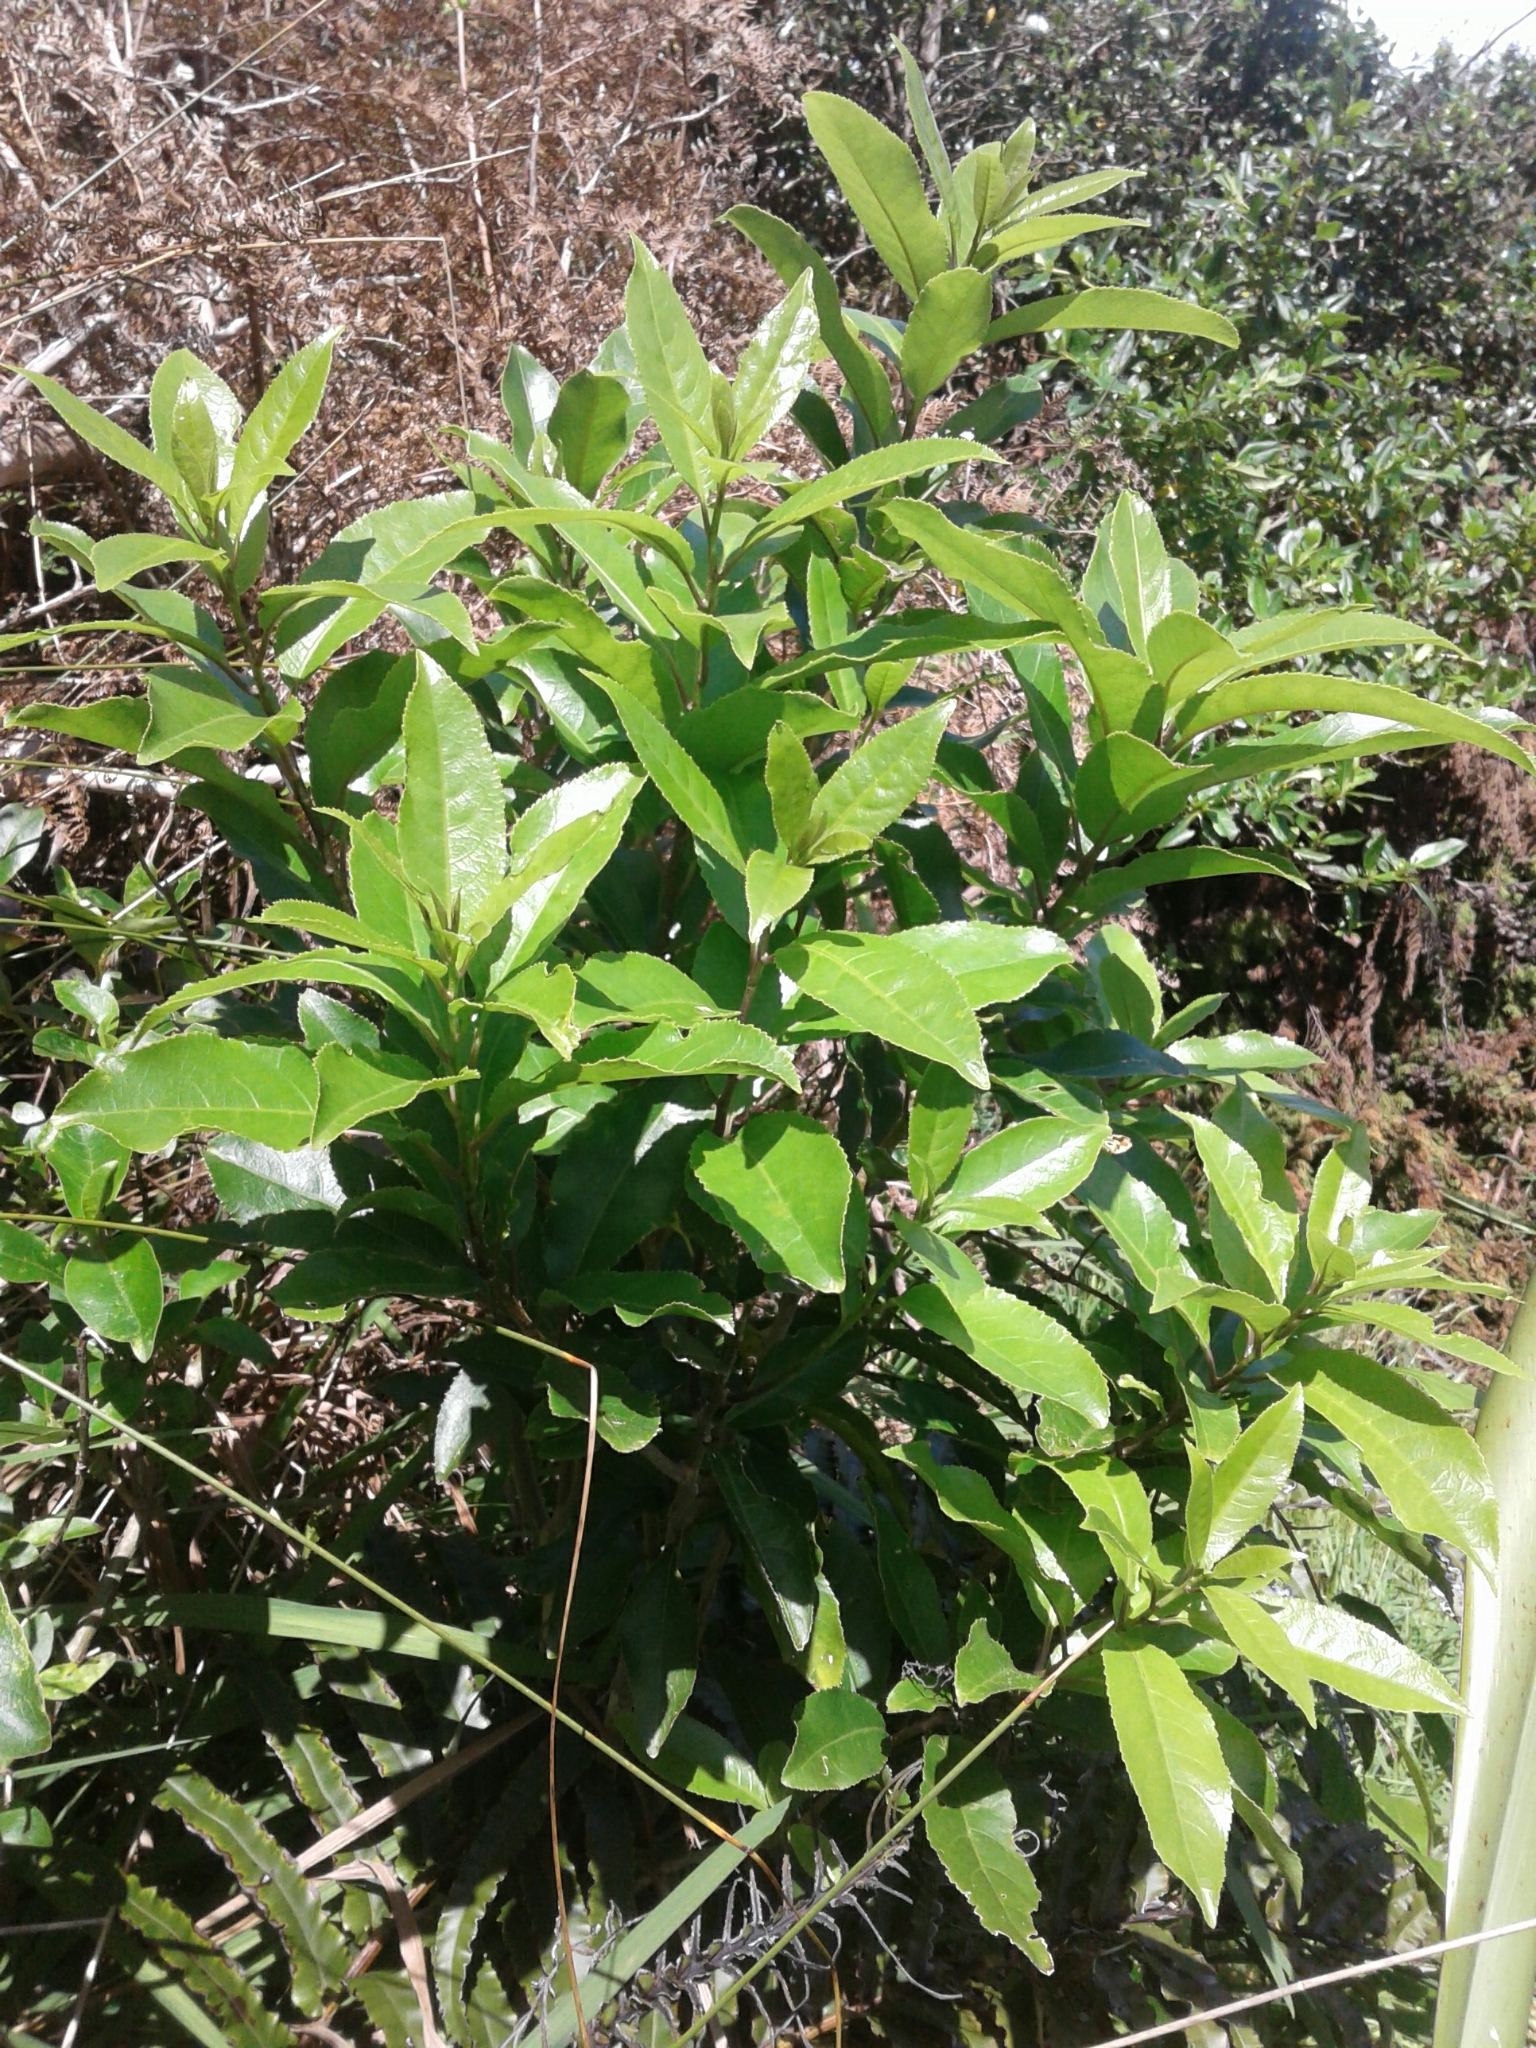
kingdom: Plantae
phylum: Tracheophyta
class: Magnoliopsida
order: Malpighiales
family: Violaceae
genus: Melicytus
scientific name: Melicytus ramiflorus
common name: Mahoe
